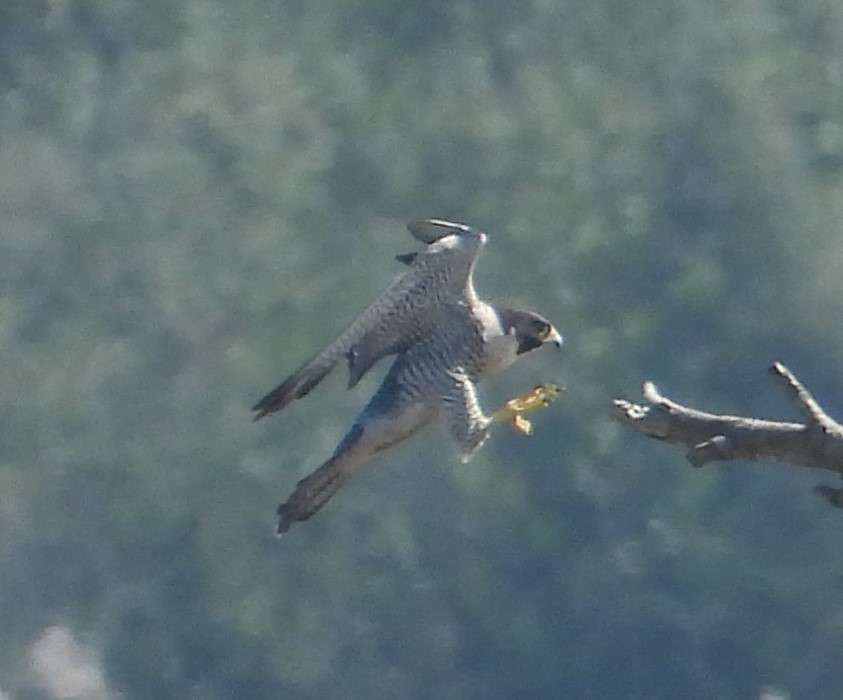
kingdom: Animalia
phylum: Chordata
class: Aves
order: Falconiformes
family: Falconidae
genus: Falco
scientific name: Falco peregrinus
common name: Peregrine falcon
